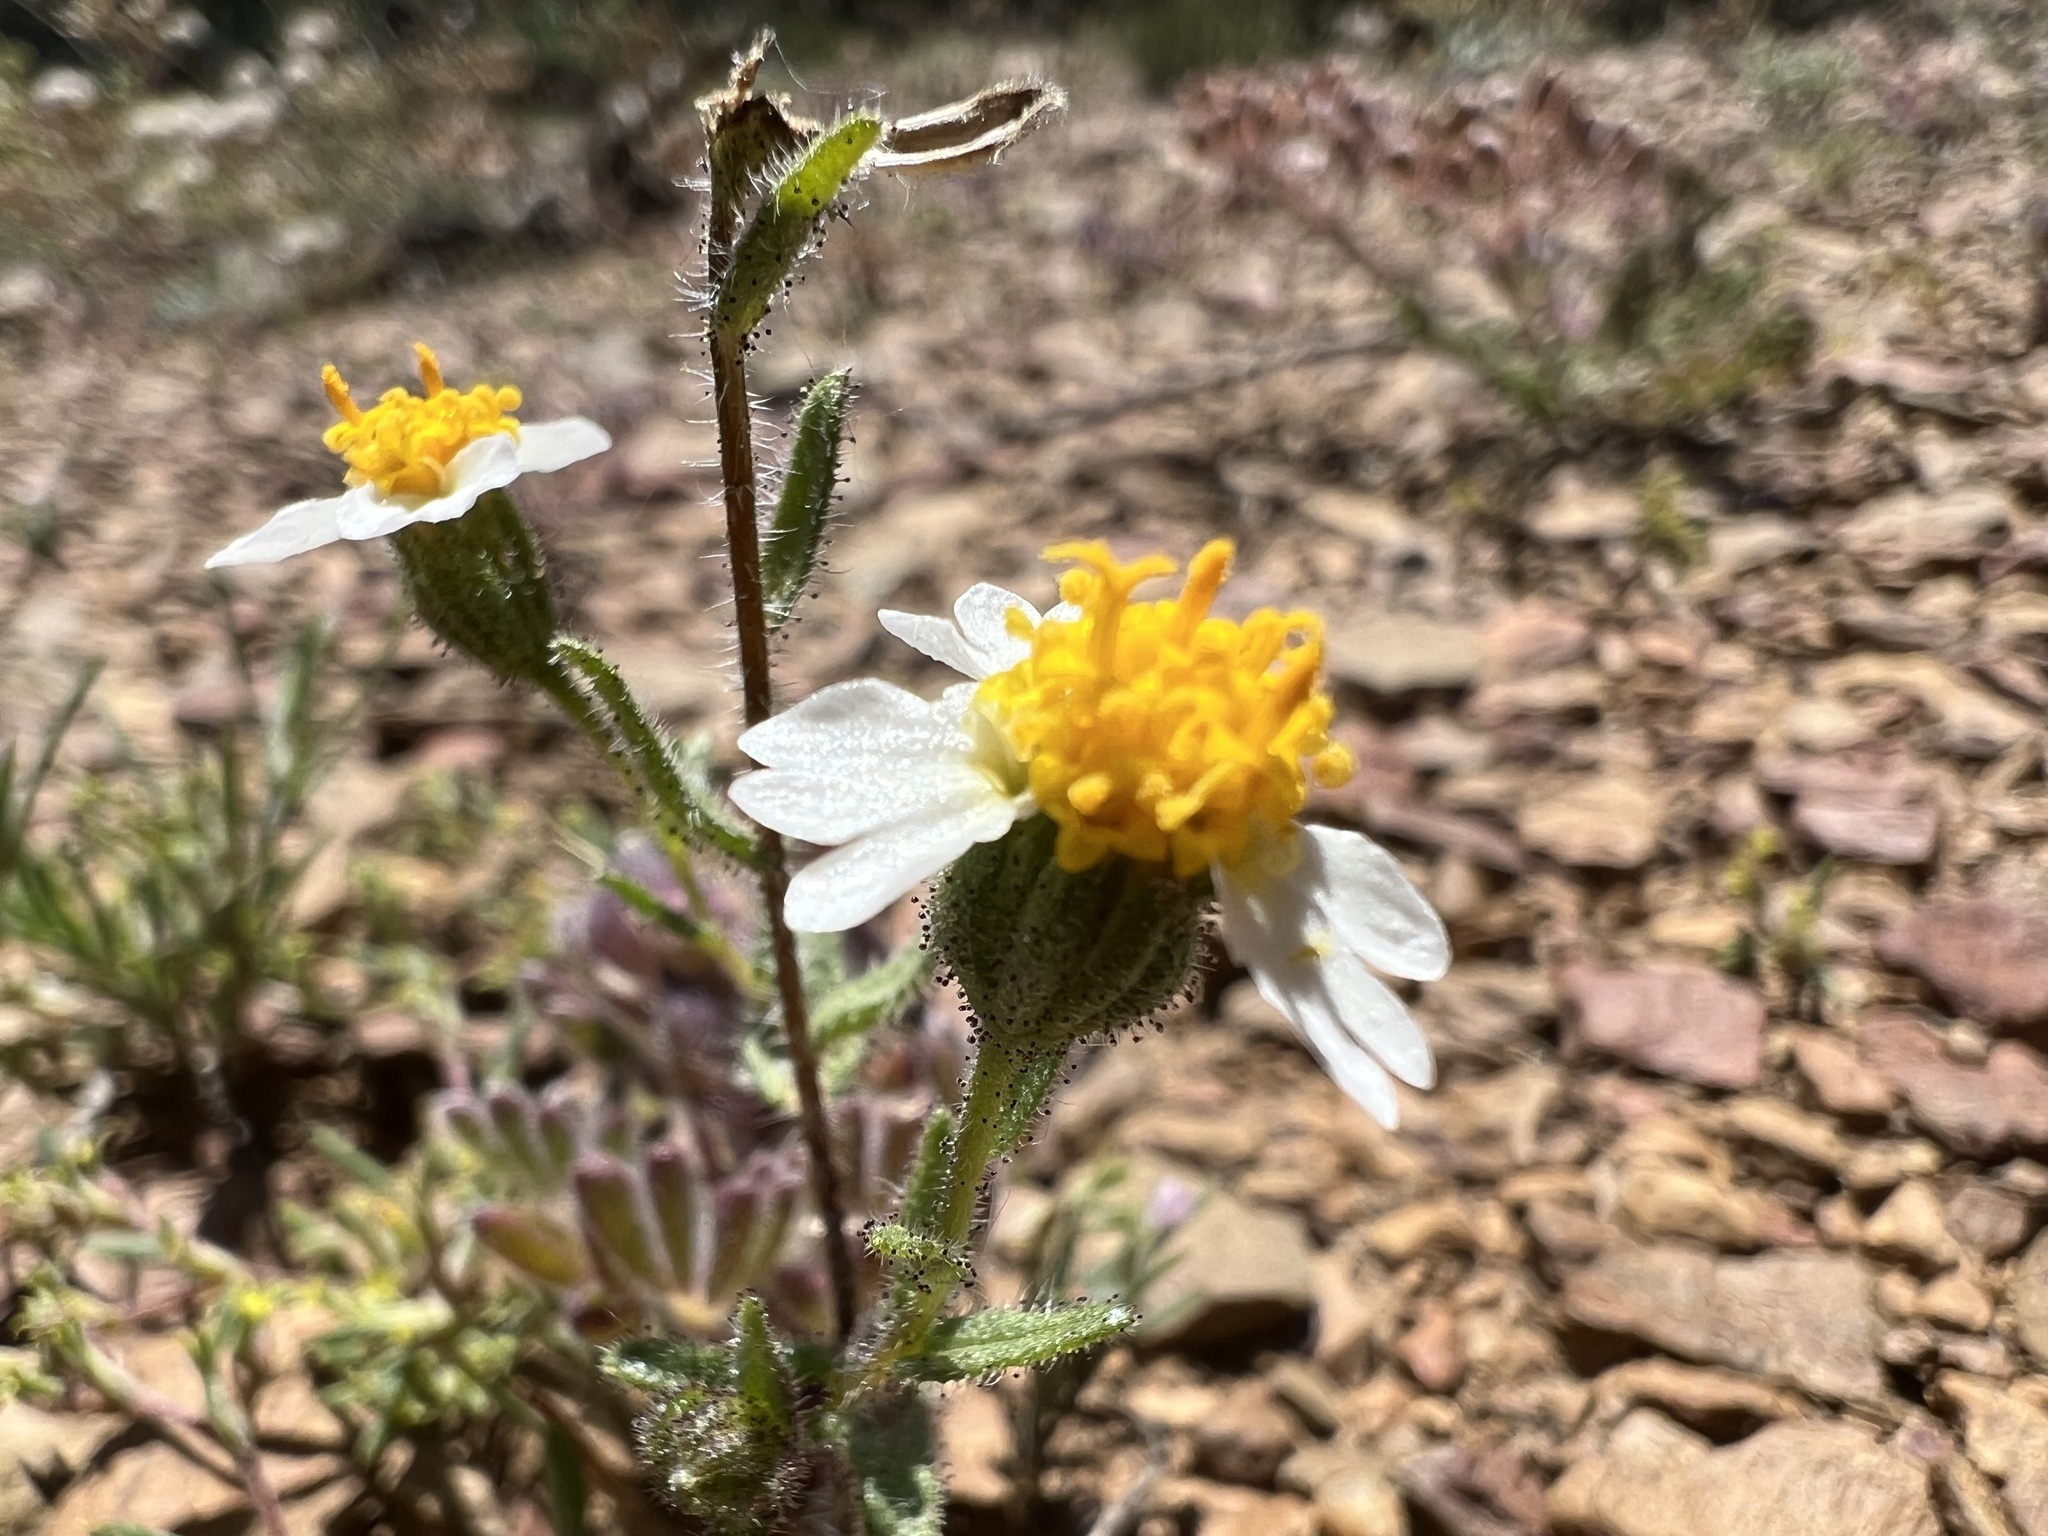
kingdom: Plantae
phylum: Tracheophyta
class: Magnoliopsida
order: Asterales
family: Asteraceae
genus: Layia
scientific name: Layia glandulosa
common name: White layia
